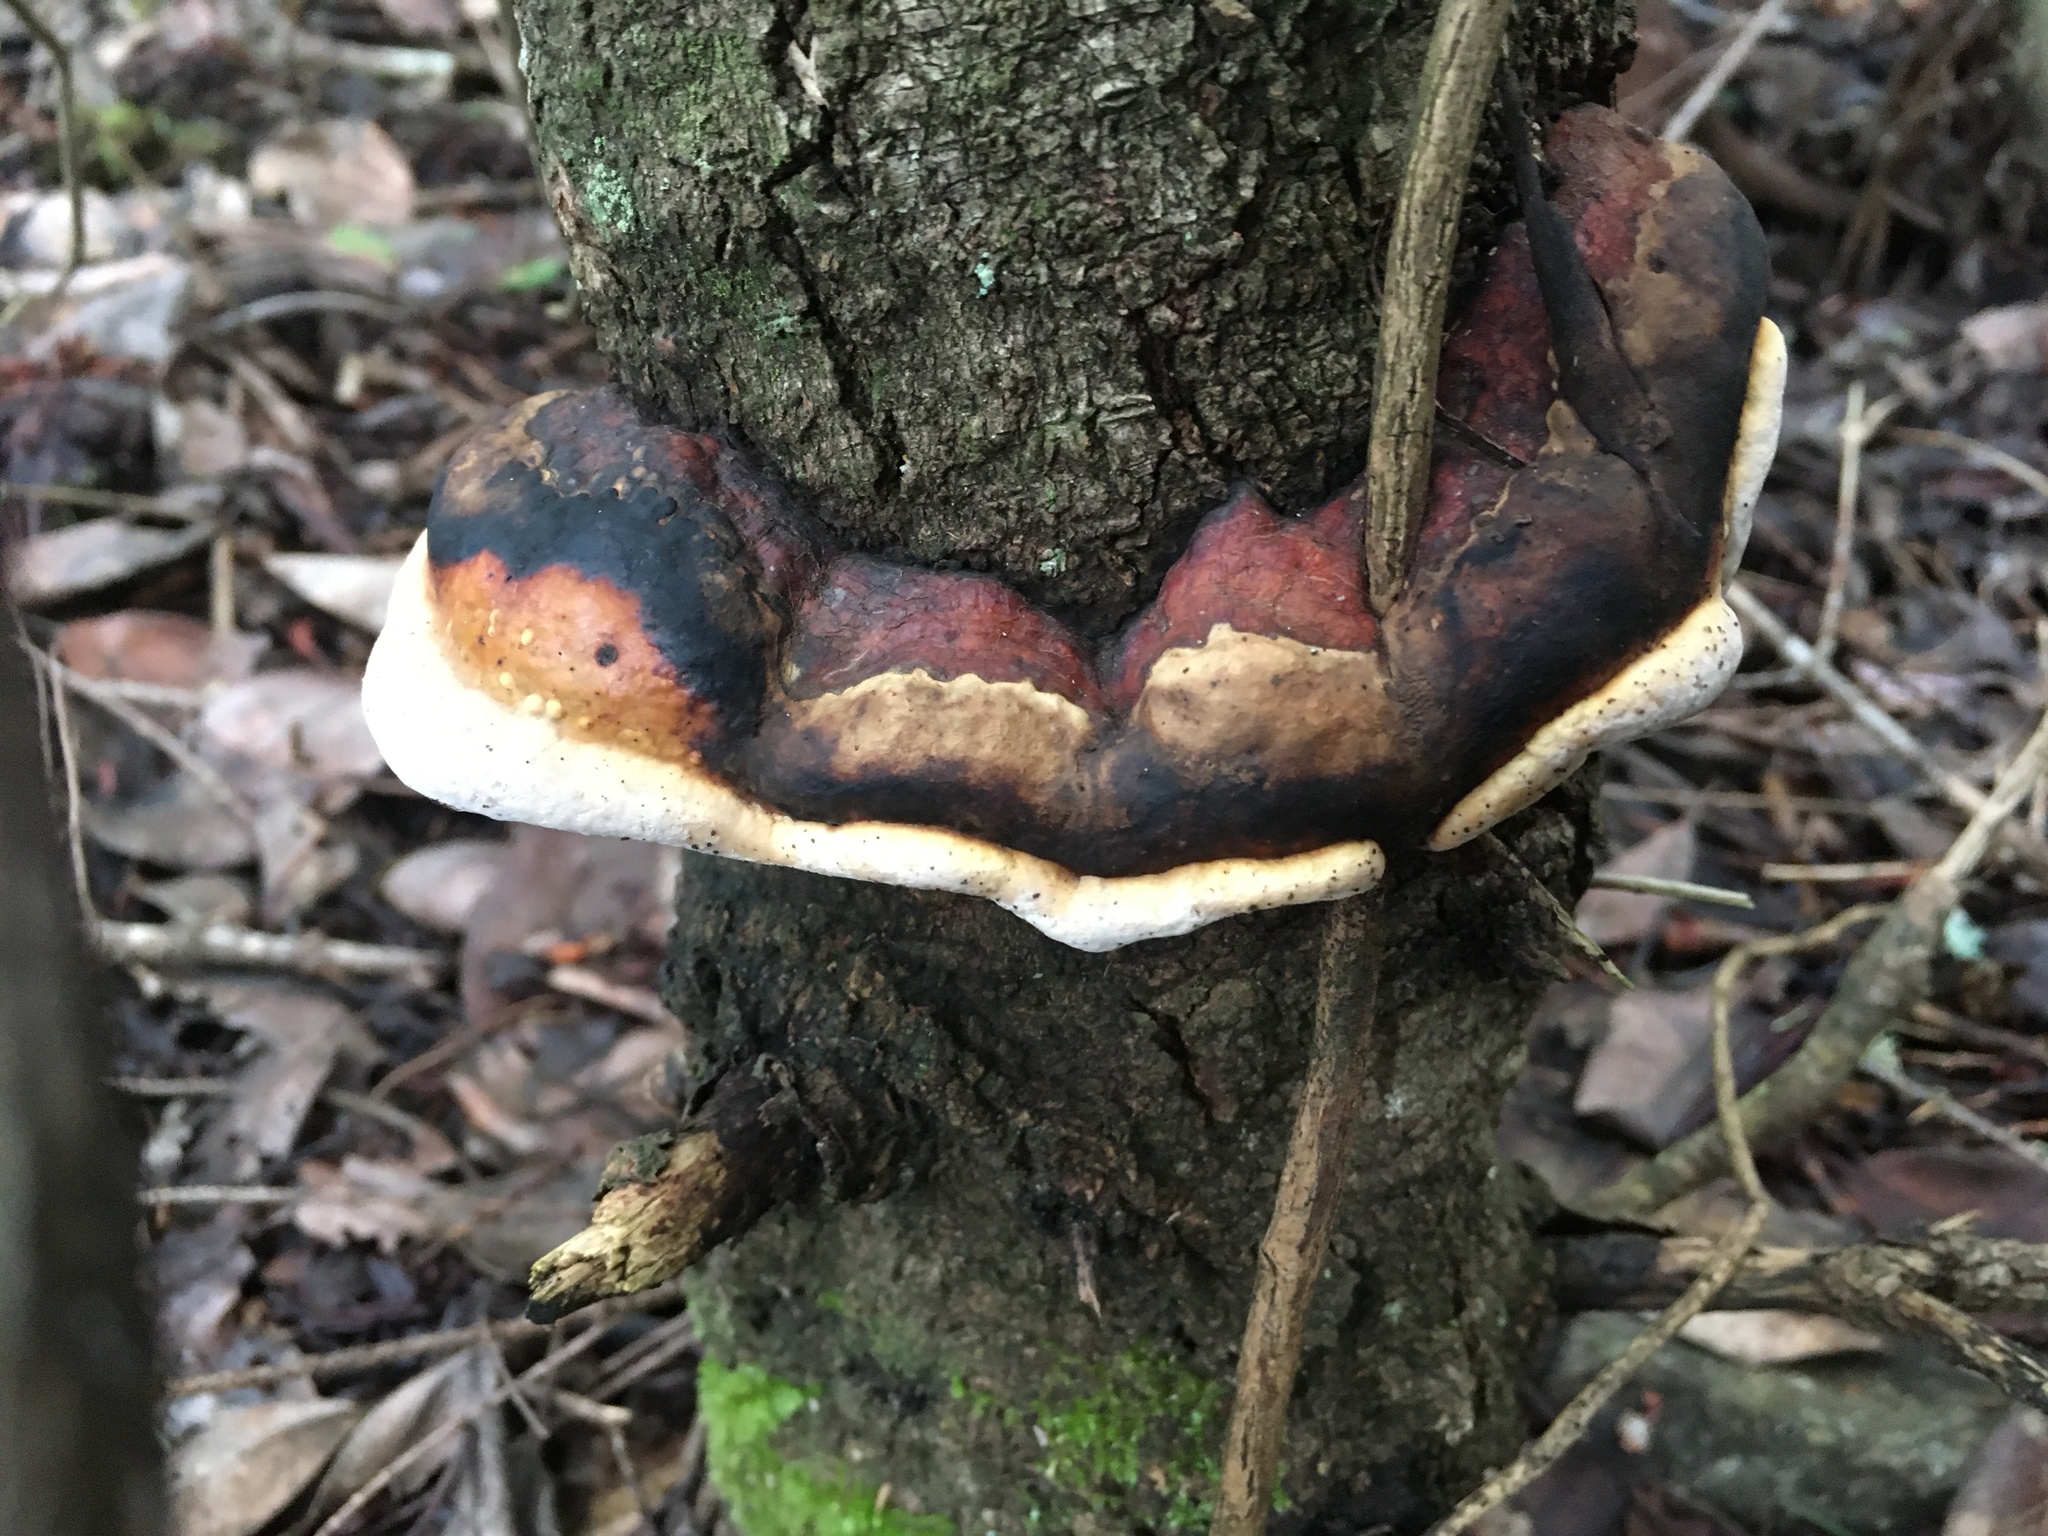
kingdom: Fungi
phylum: Basidiomycota
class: Agaricomycetes
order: Polyporales
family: Fomitopsidaceae
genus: Fomitopsis
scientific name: Fomitopsis mounceae
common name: Northern red belt
